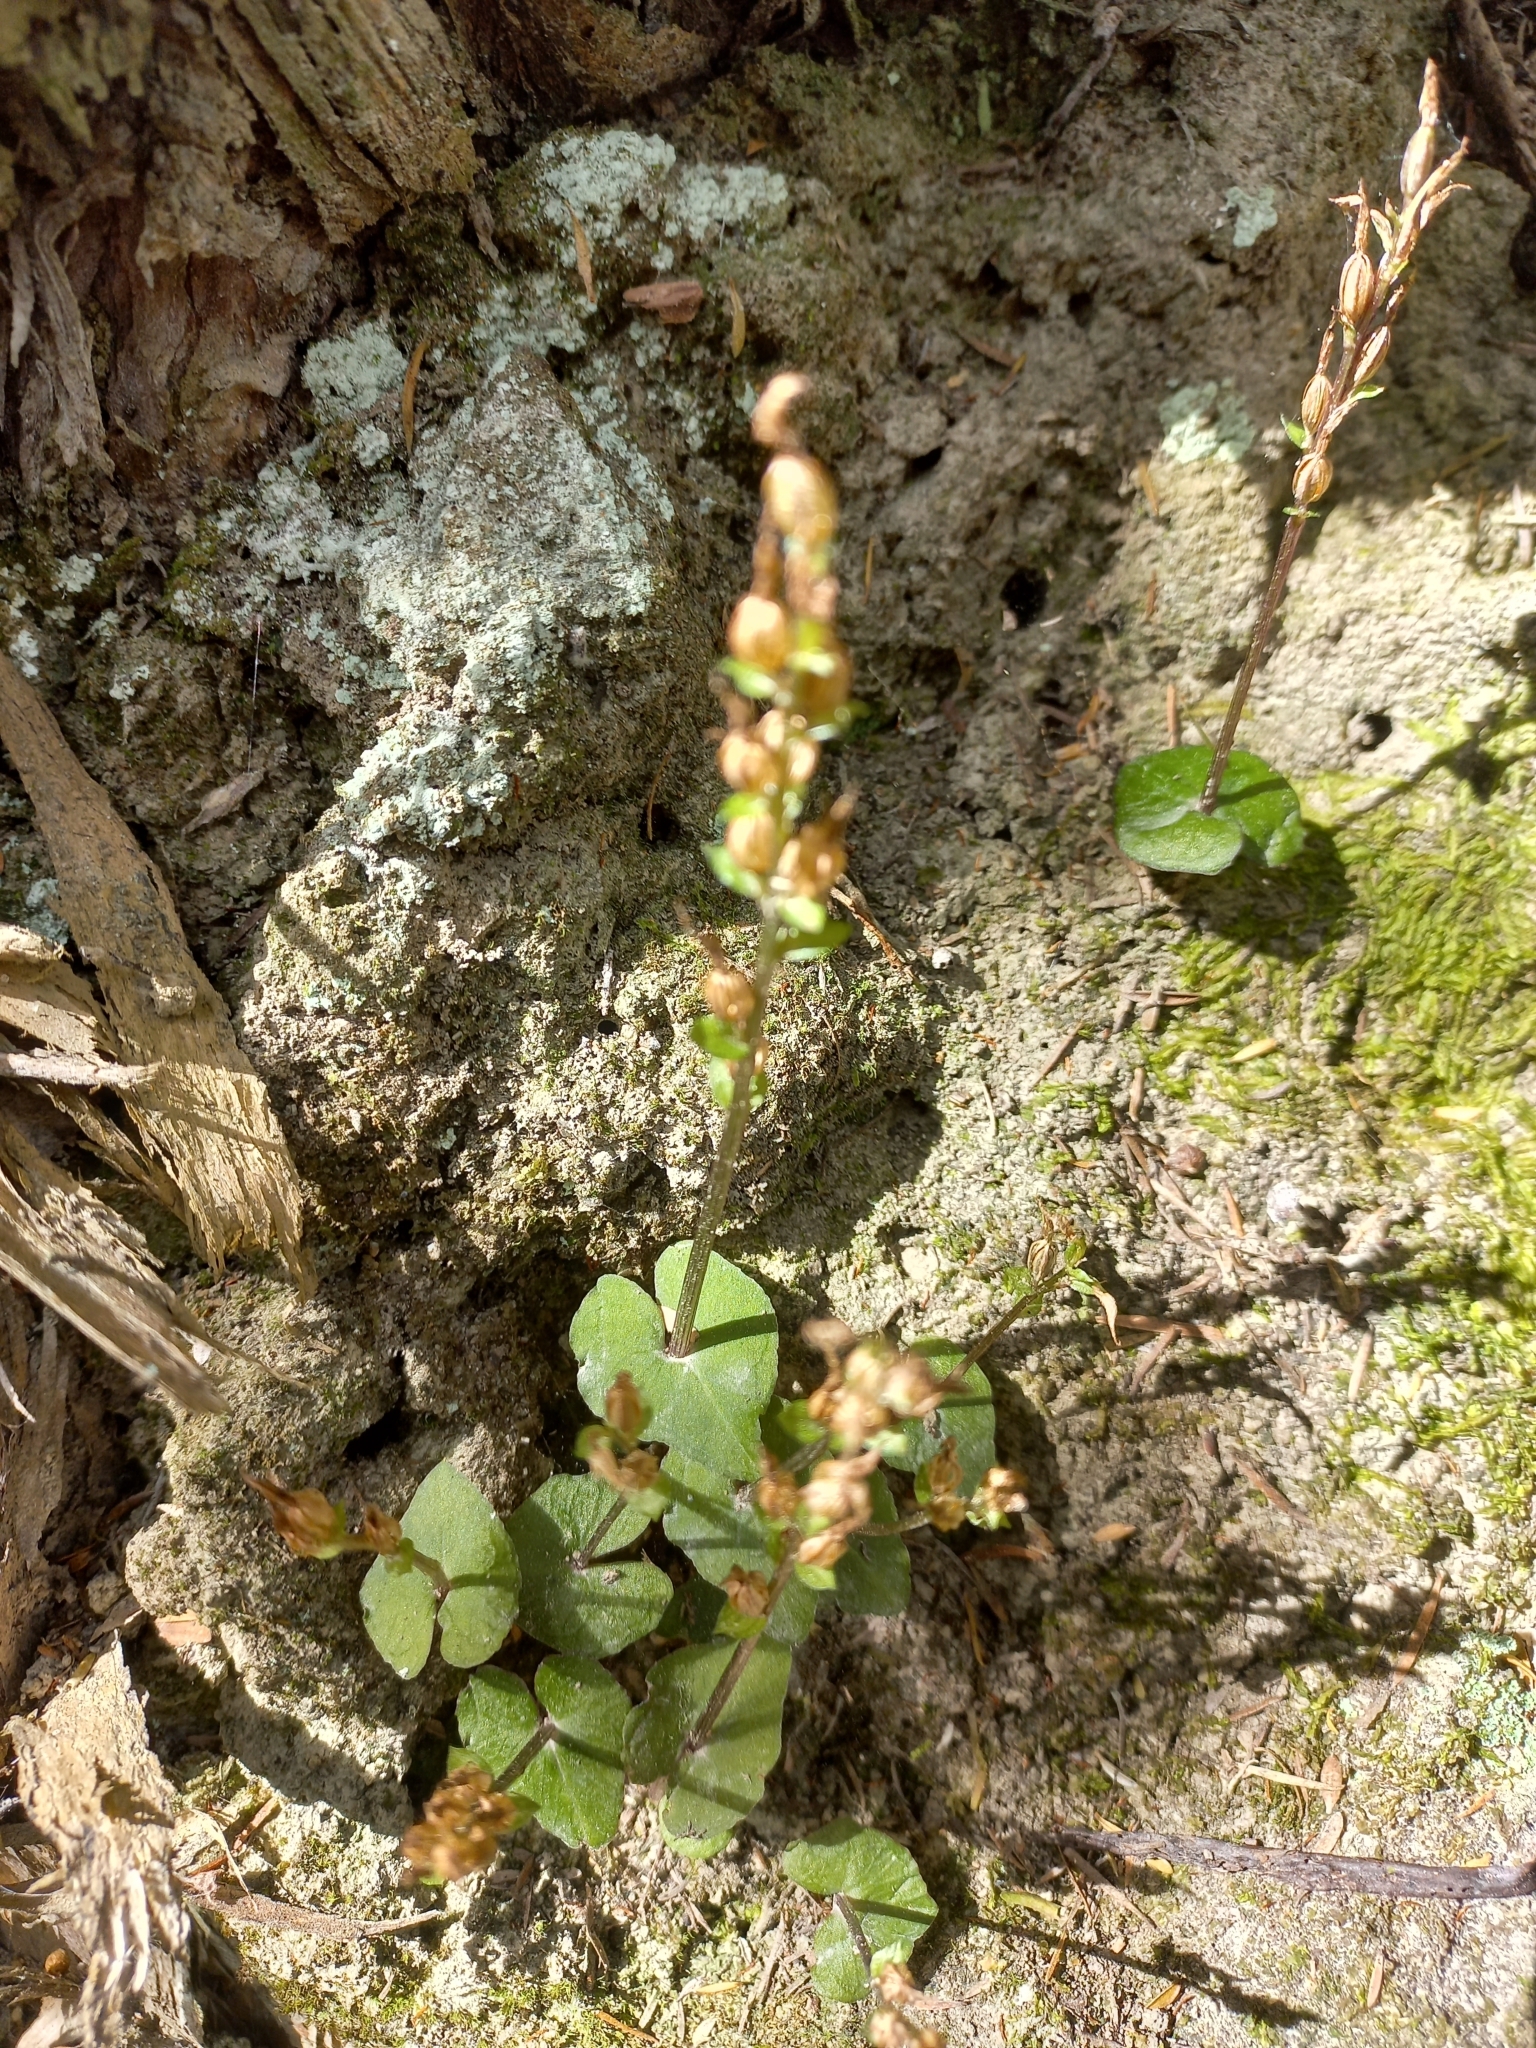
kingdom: Plantae
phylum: Tracheophyta
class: Liliopsida
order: Asparagales
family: Orchidaceae
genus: Acianthus
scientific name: Acianthus sinclairii
